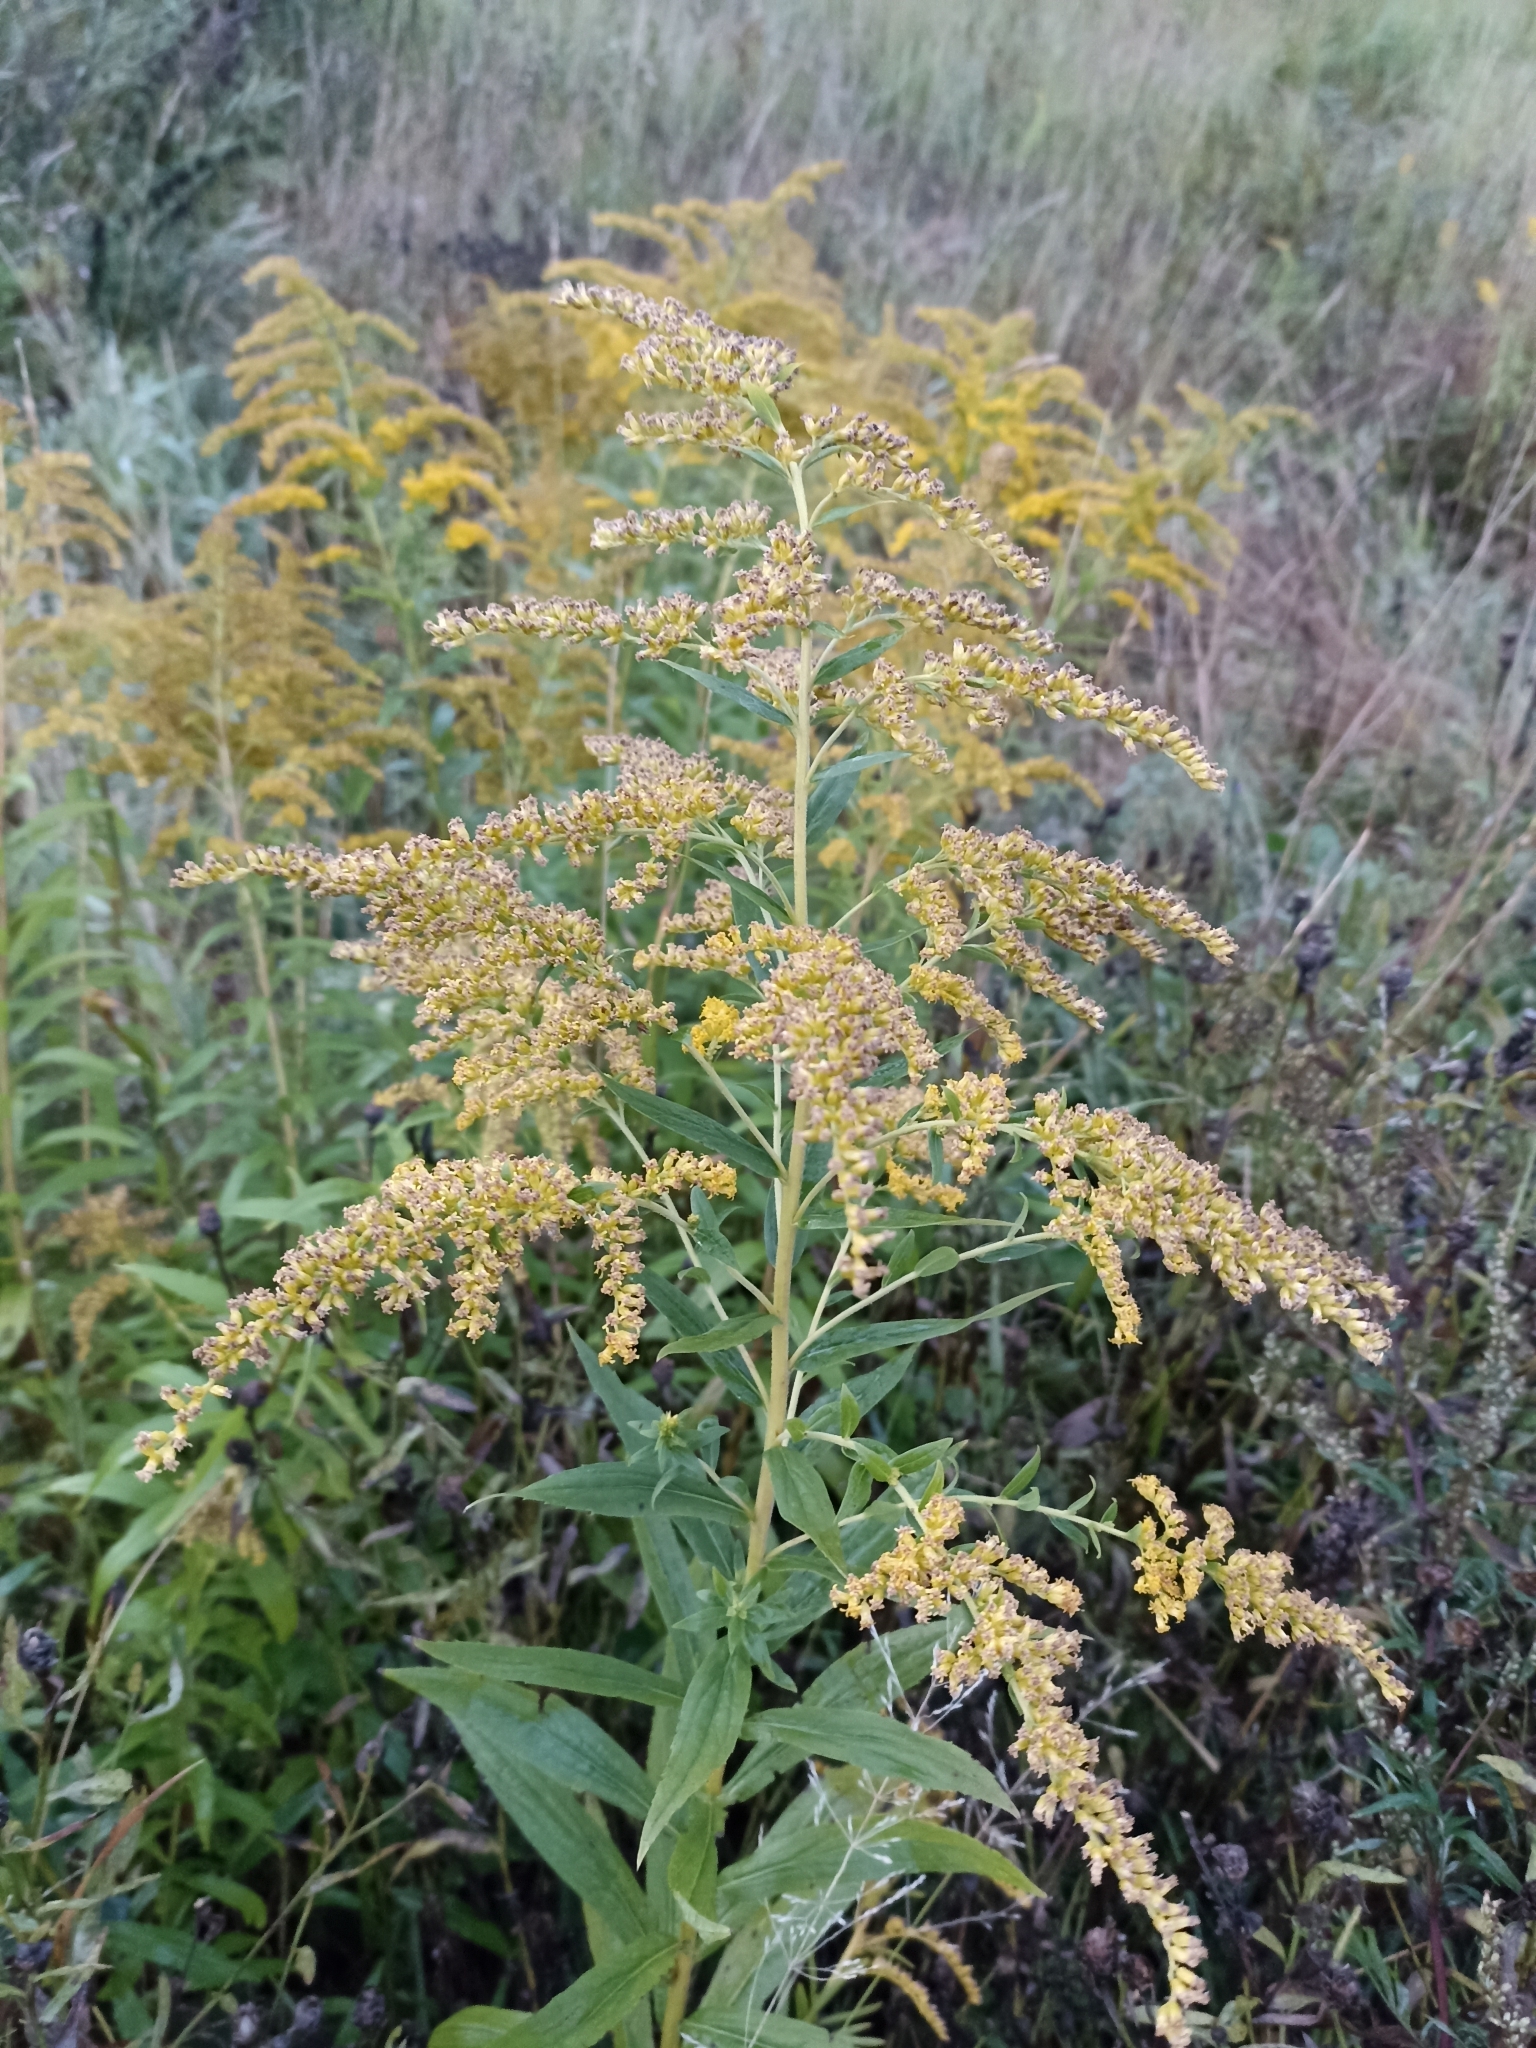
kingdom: Plantae
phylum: Tracheophyta
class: Magnoliopsida
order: Asterales
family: Asteraceae
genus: Solidago
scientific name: Solidago canadensis
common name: Canada goldenrod
